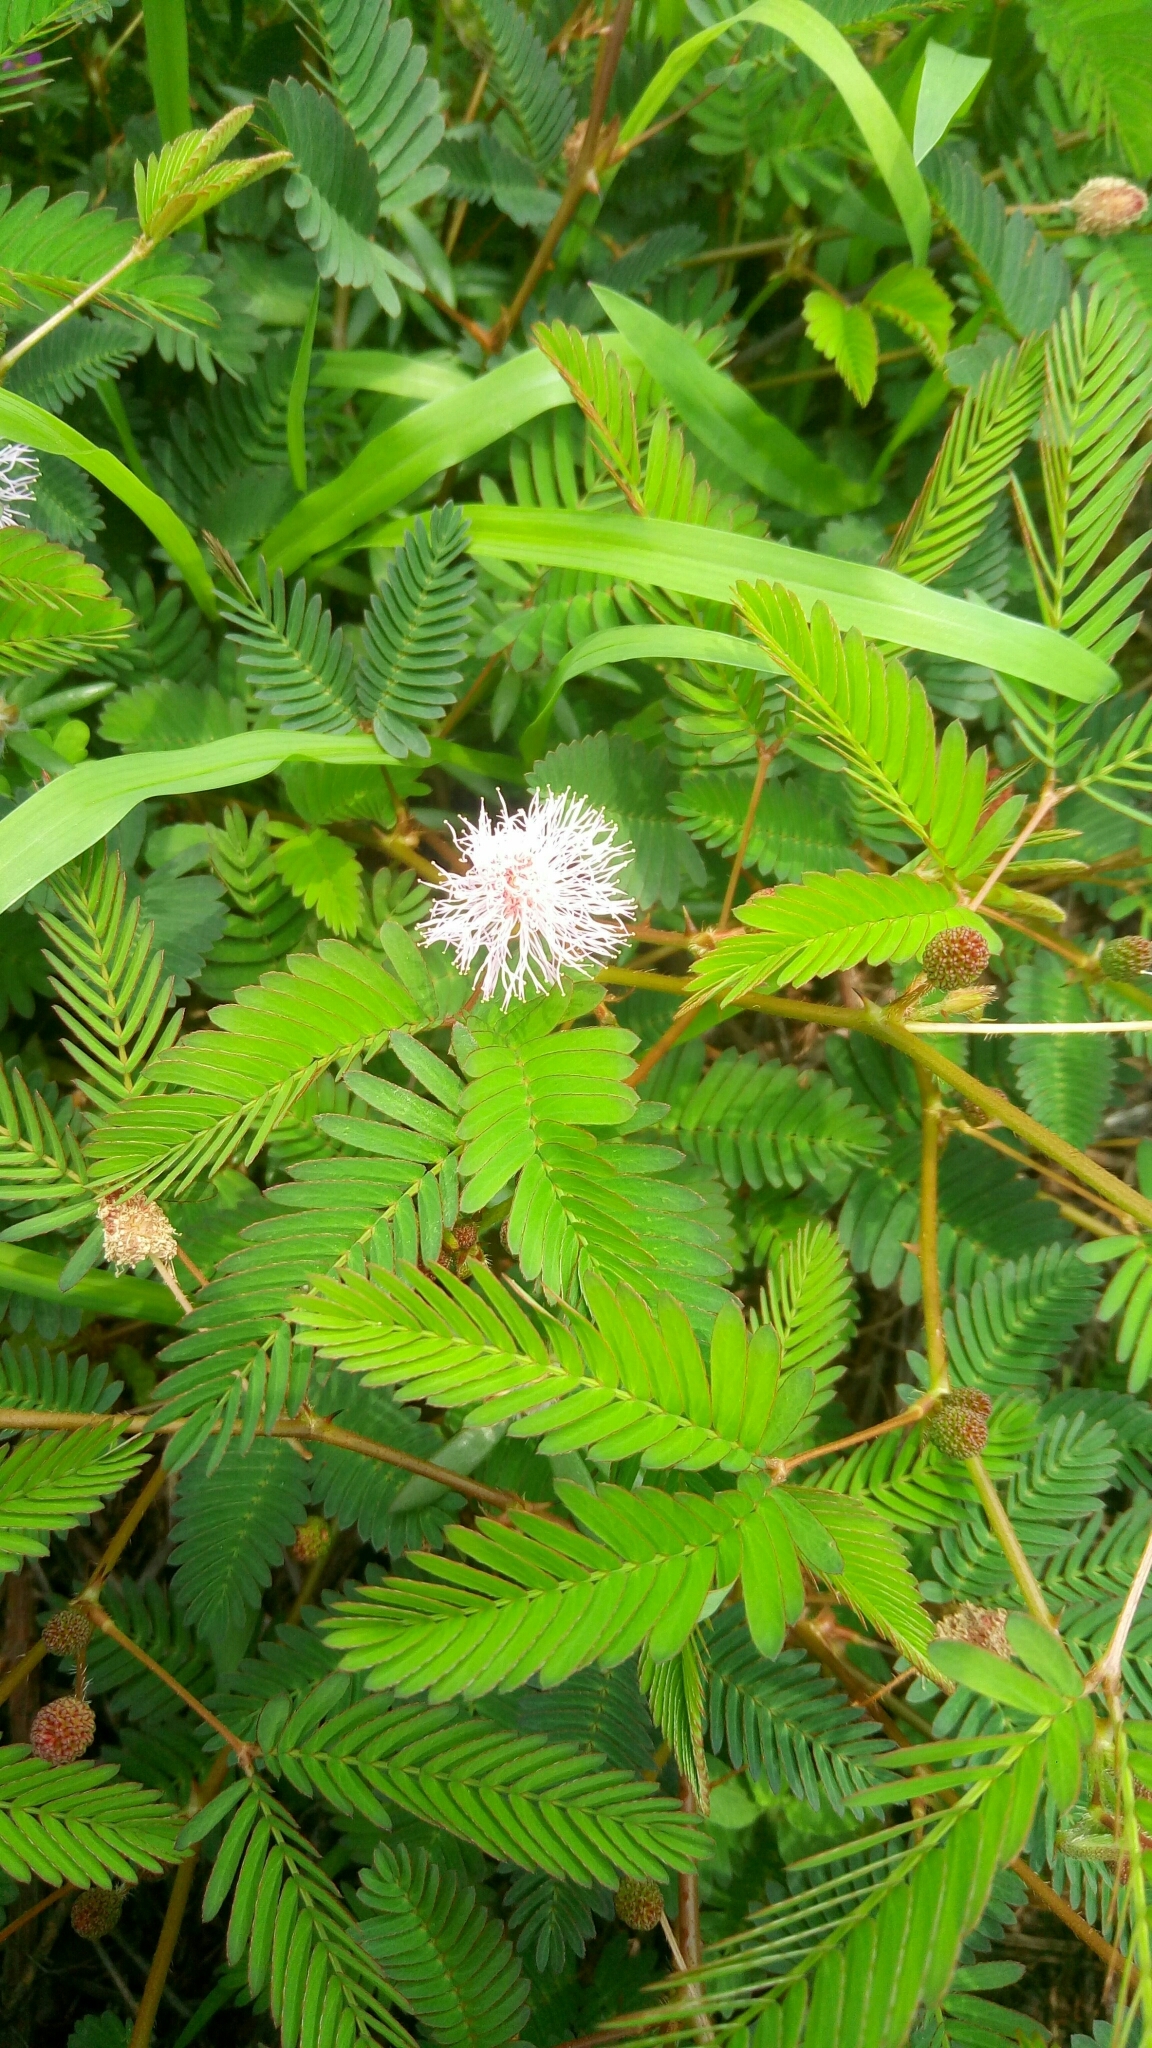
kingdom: Plantae
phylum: Tracheophyta
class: Magnoliopsida
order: Fabales
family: Fabaceae
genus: Mimosa
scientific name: Mimosa pudica
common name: Sensitive plant
